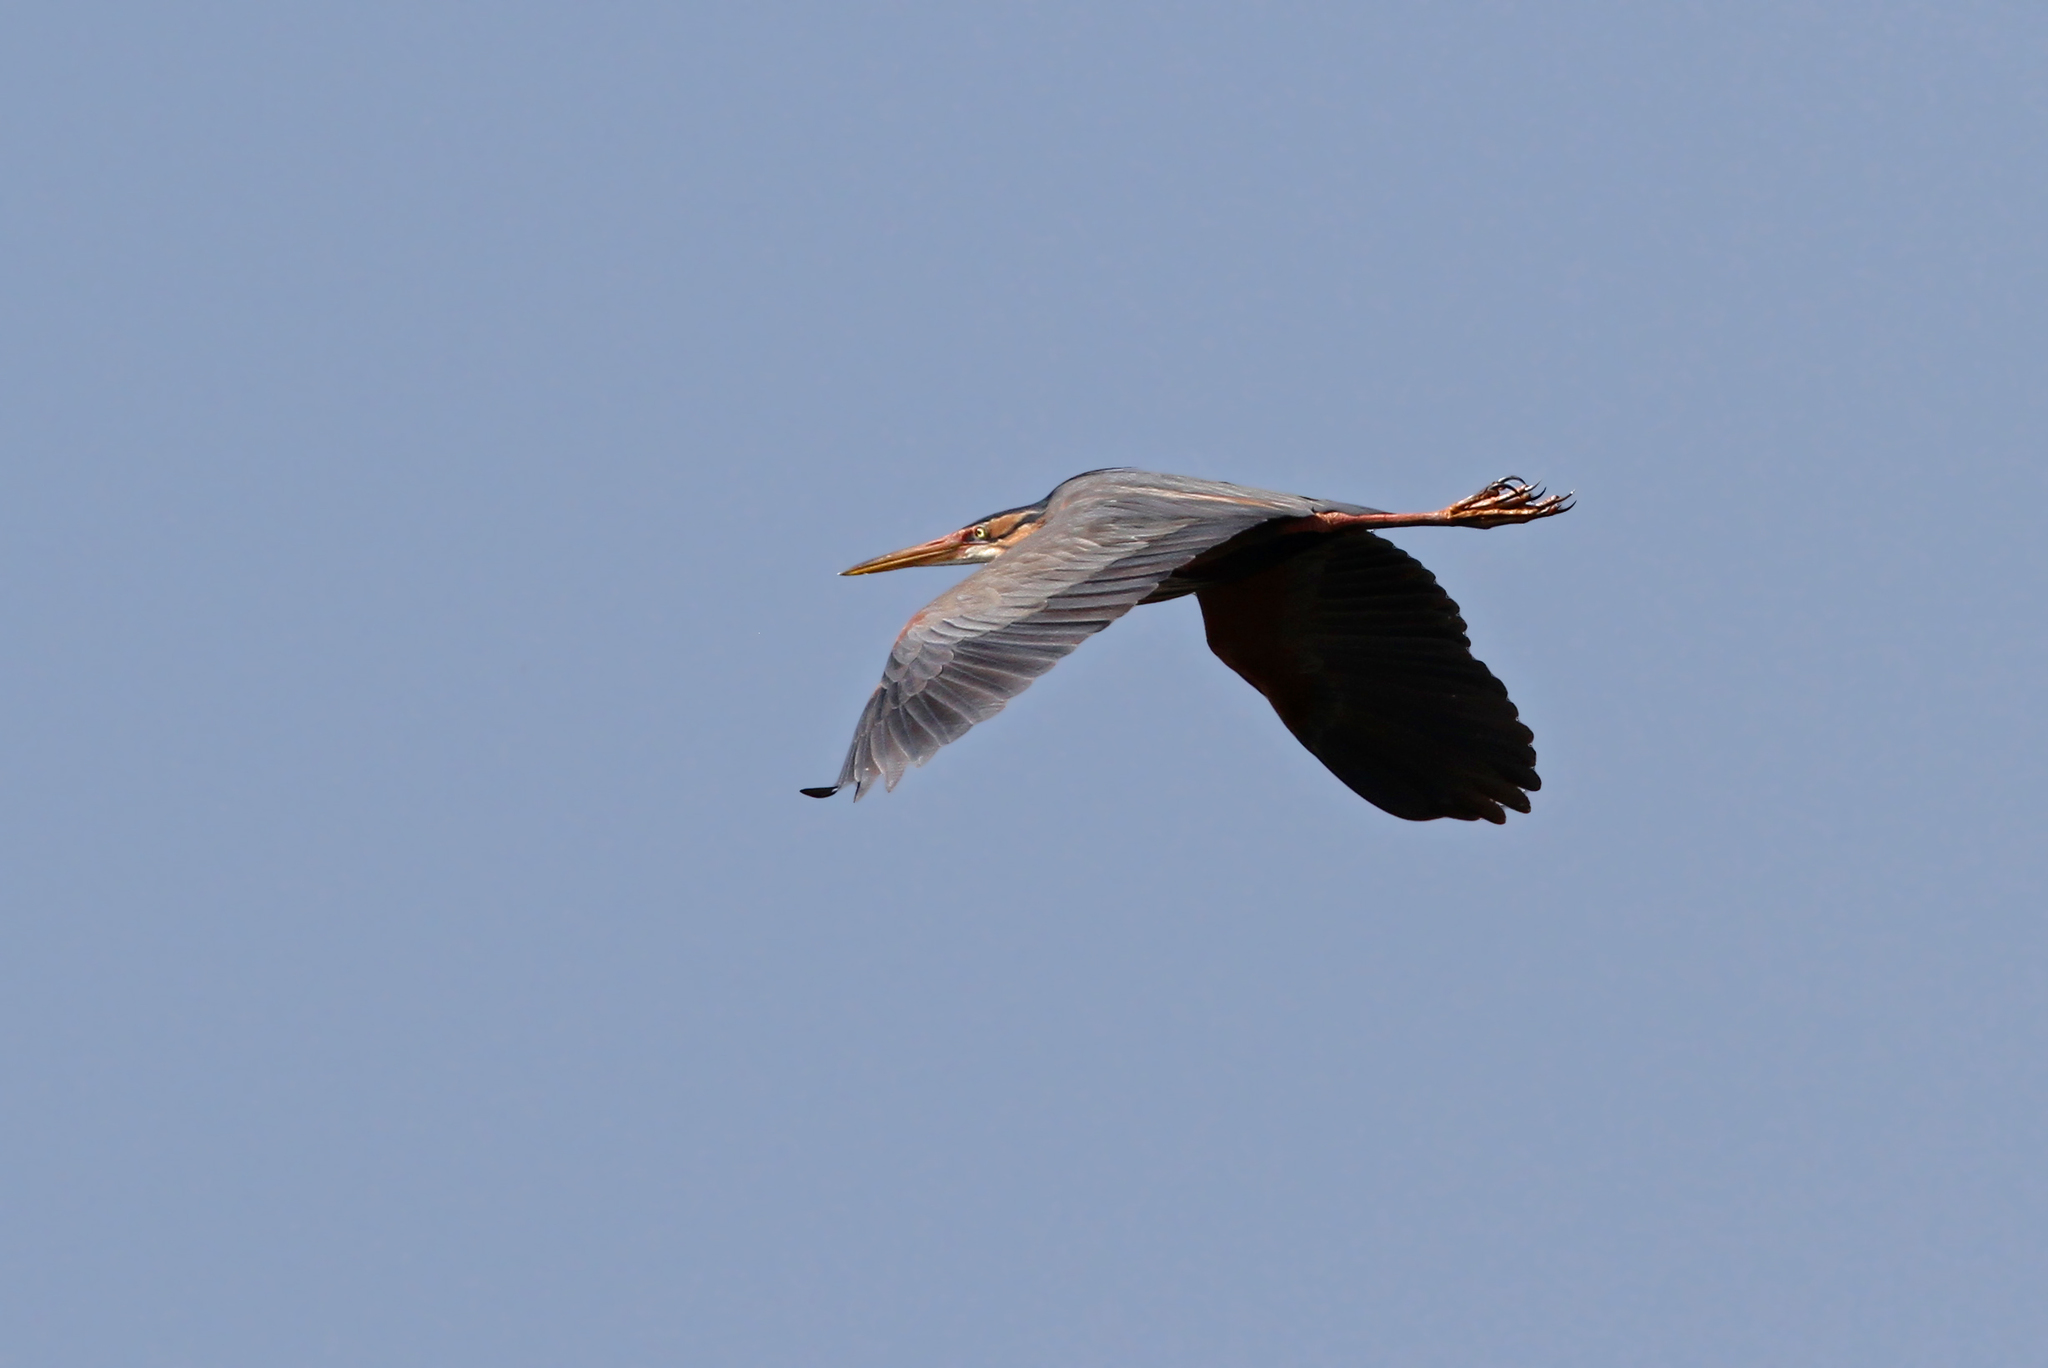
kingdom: Animalia
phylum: Chordata
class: Aves
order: Pelecaniformes
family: Ardeidae
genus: Ardea
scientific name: Ardea purpurea
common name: Purple heron
